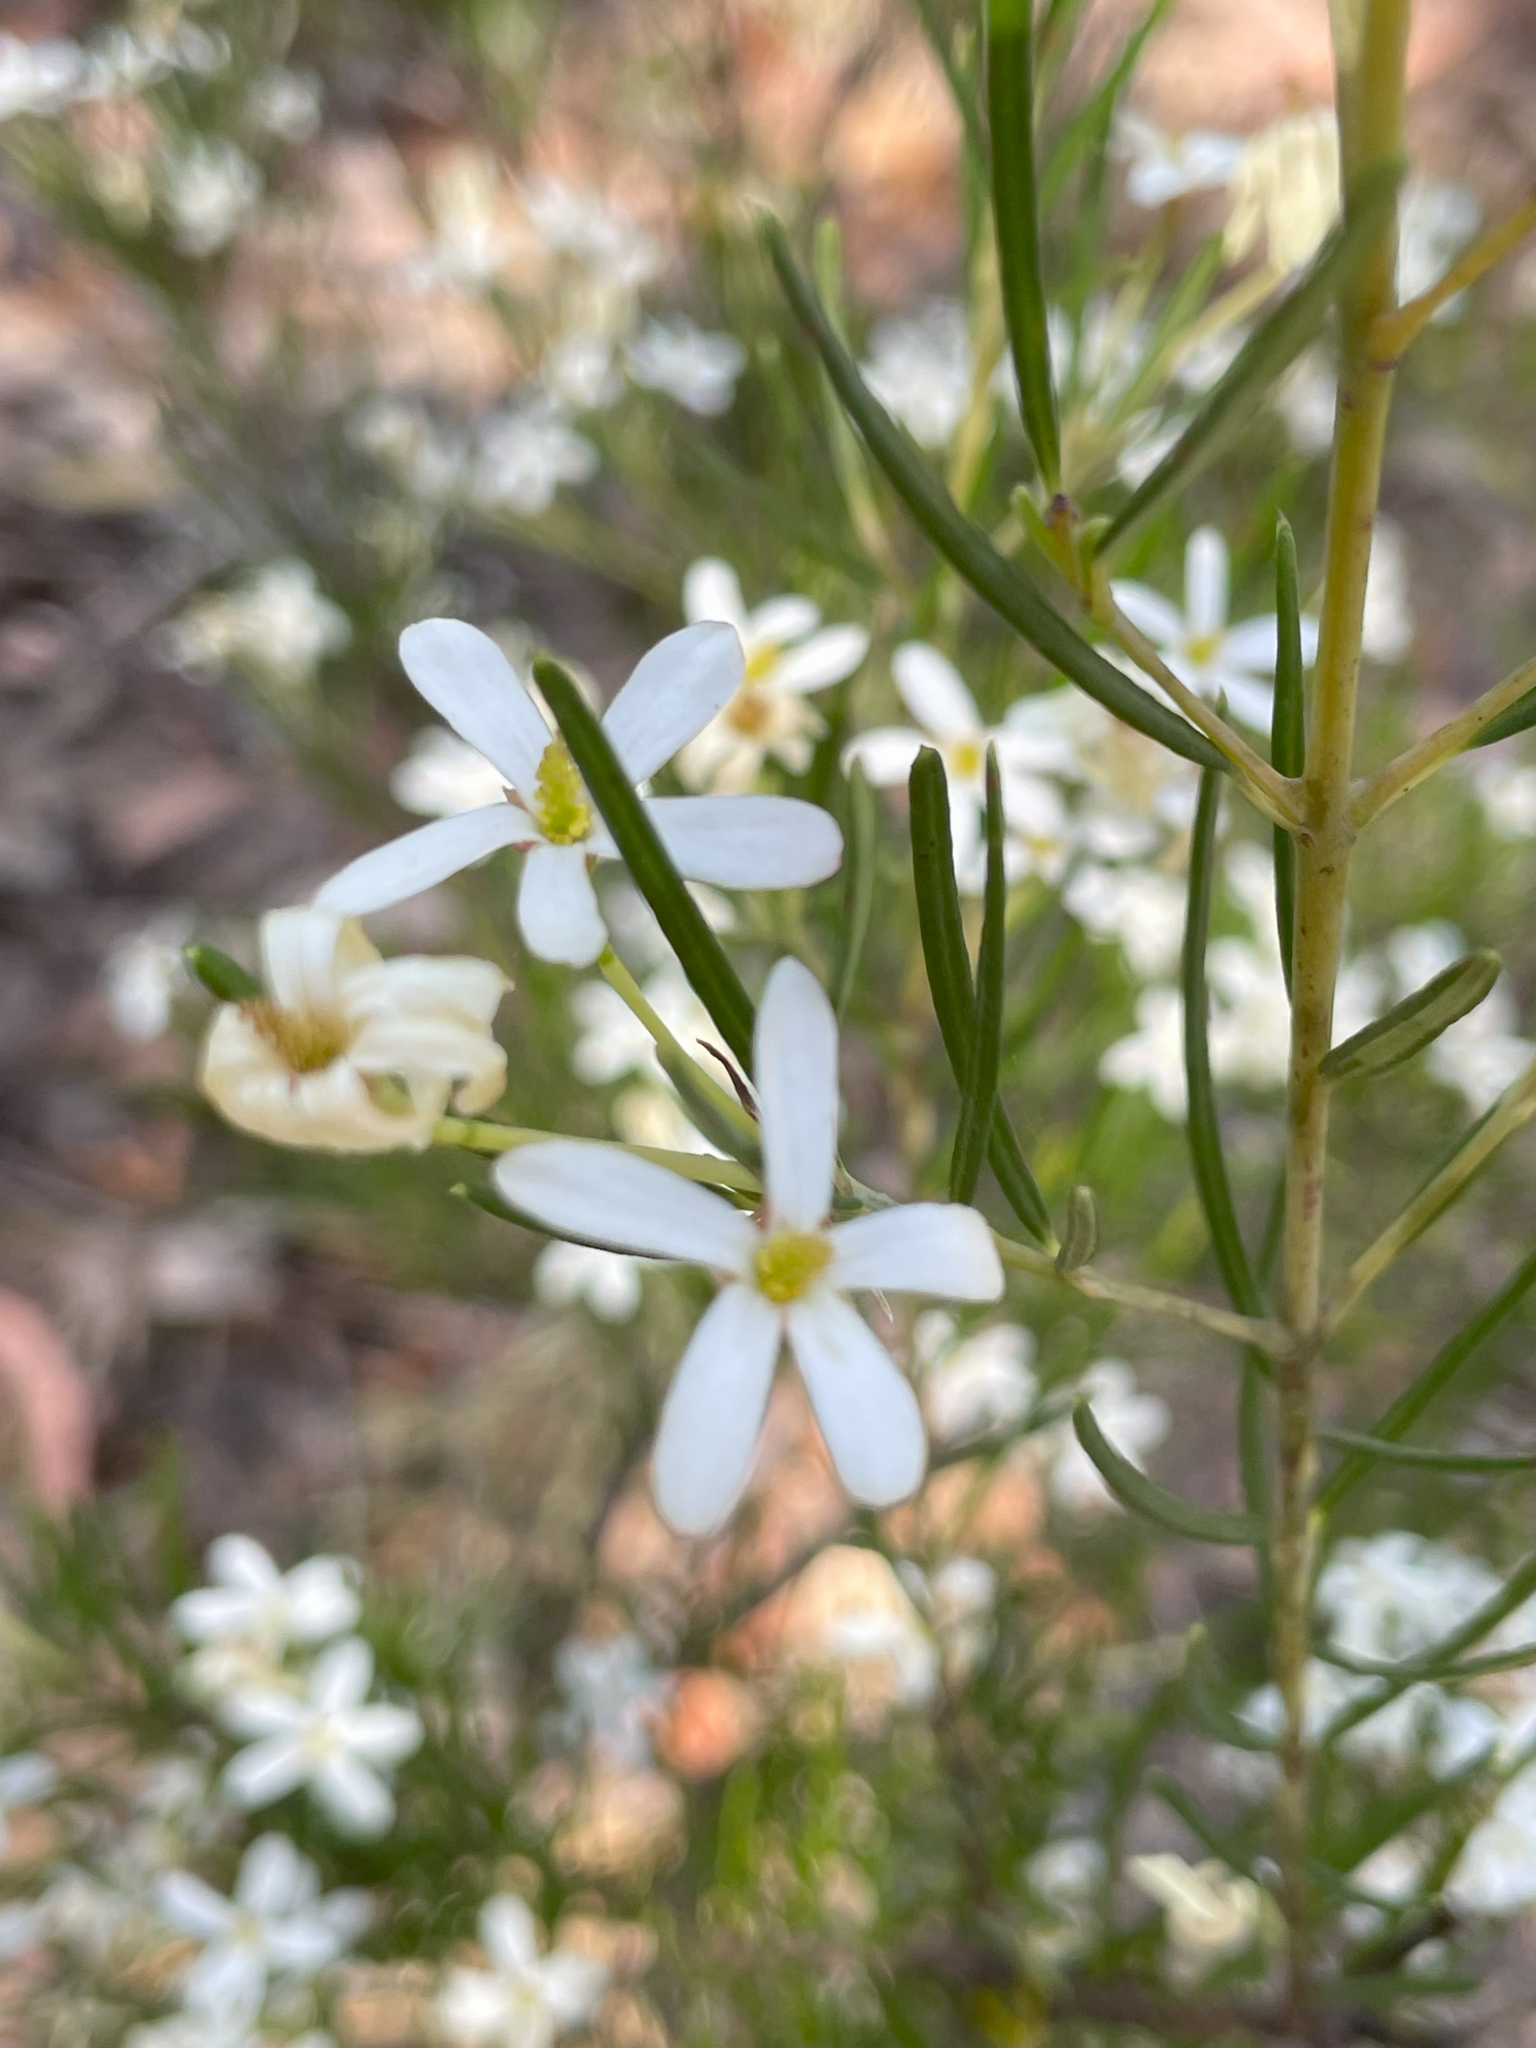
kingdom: Plantae
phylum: Tracheophyta
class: Magnoliopsida
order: Malpighiales
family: Euphorbiaceae
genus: Ricinocarpos
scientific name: Ricinocarpos pinifolius
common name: Weddingbush
